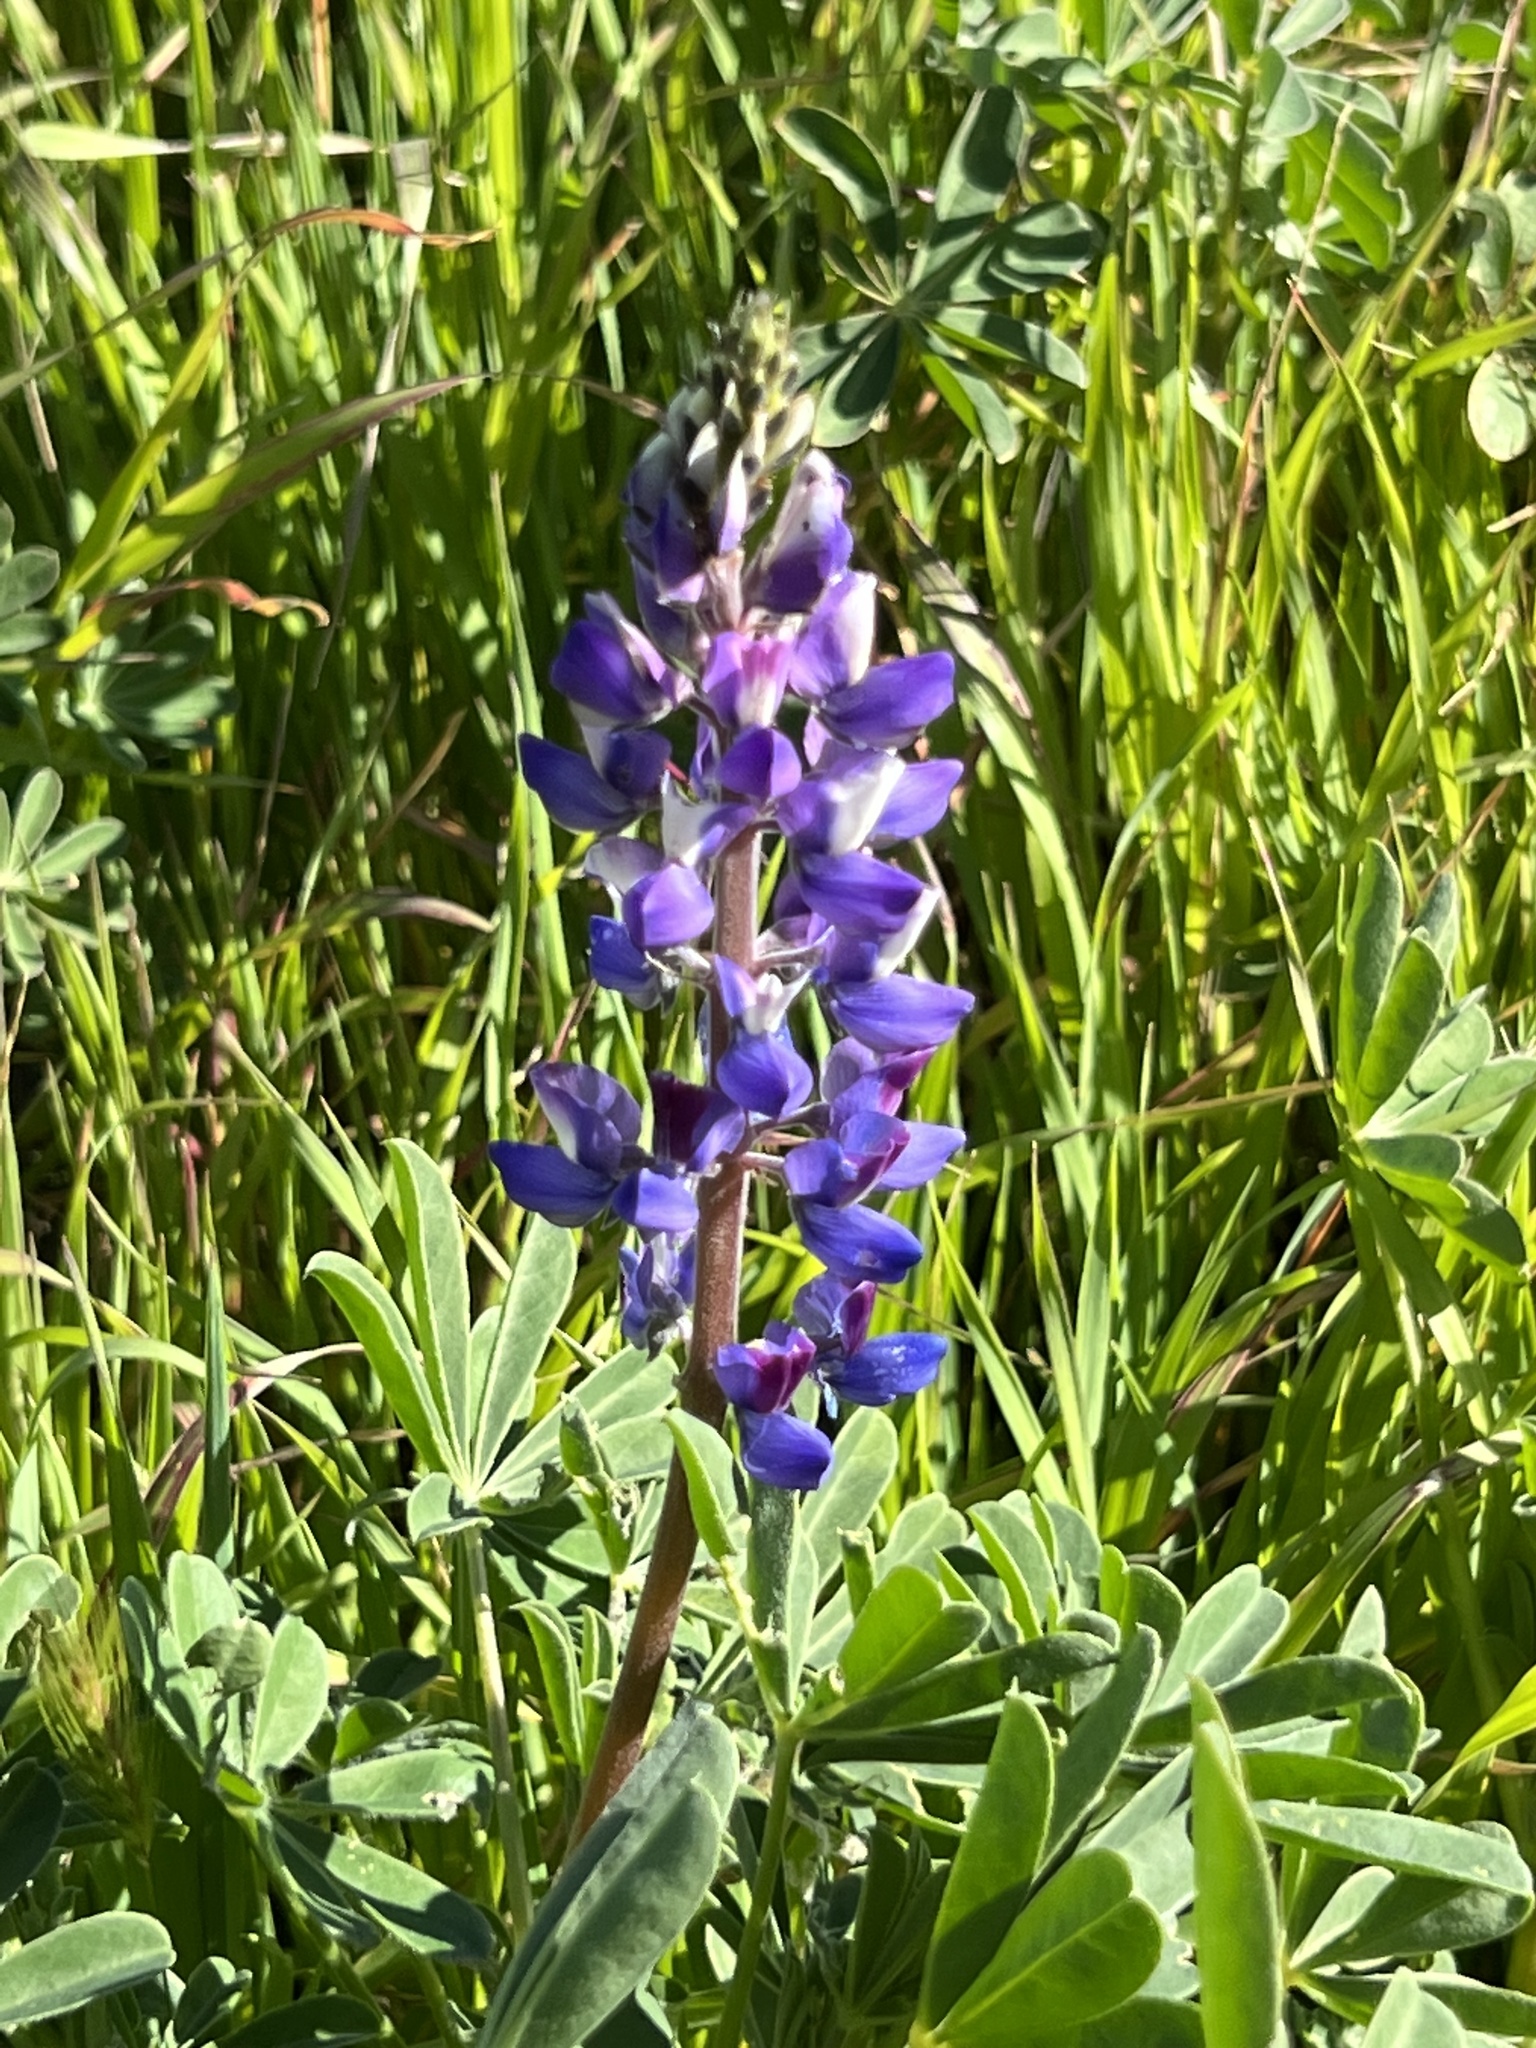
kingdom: Plantae
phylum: Tracheophyta
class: Magnoliopsida
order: Fabales
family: Fabaceae
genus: Lupinus
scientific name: Lupinus succulentus
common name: Arroyo lupine
